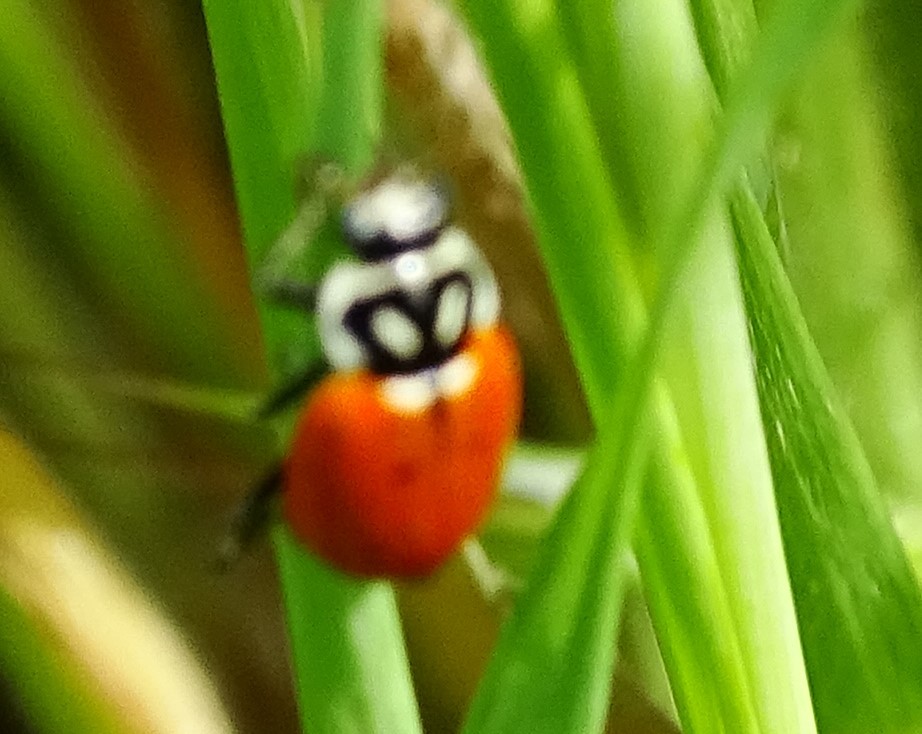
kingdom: Animalia
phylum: Arthropoda
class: Insecta
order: Coleoptera
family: Coccinellidae
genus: Hippodamia
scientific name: Hippodamia convergens
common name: Convergent lady beetle
